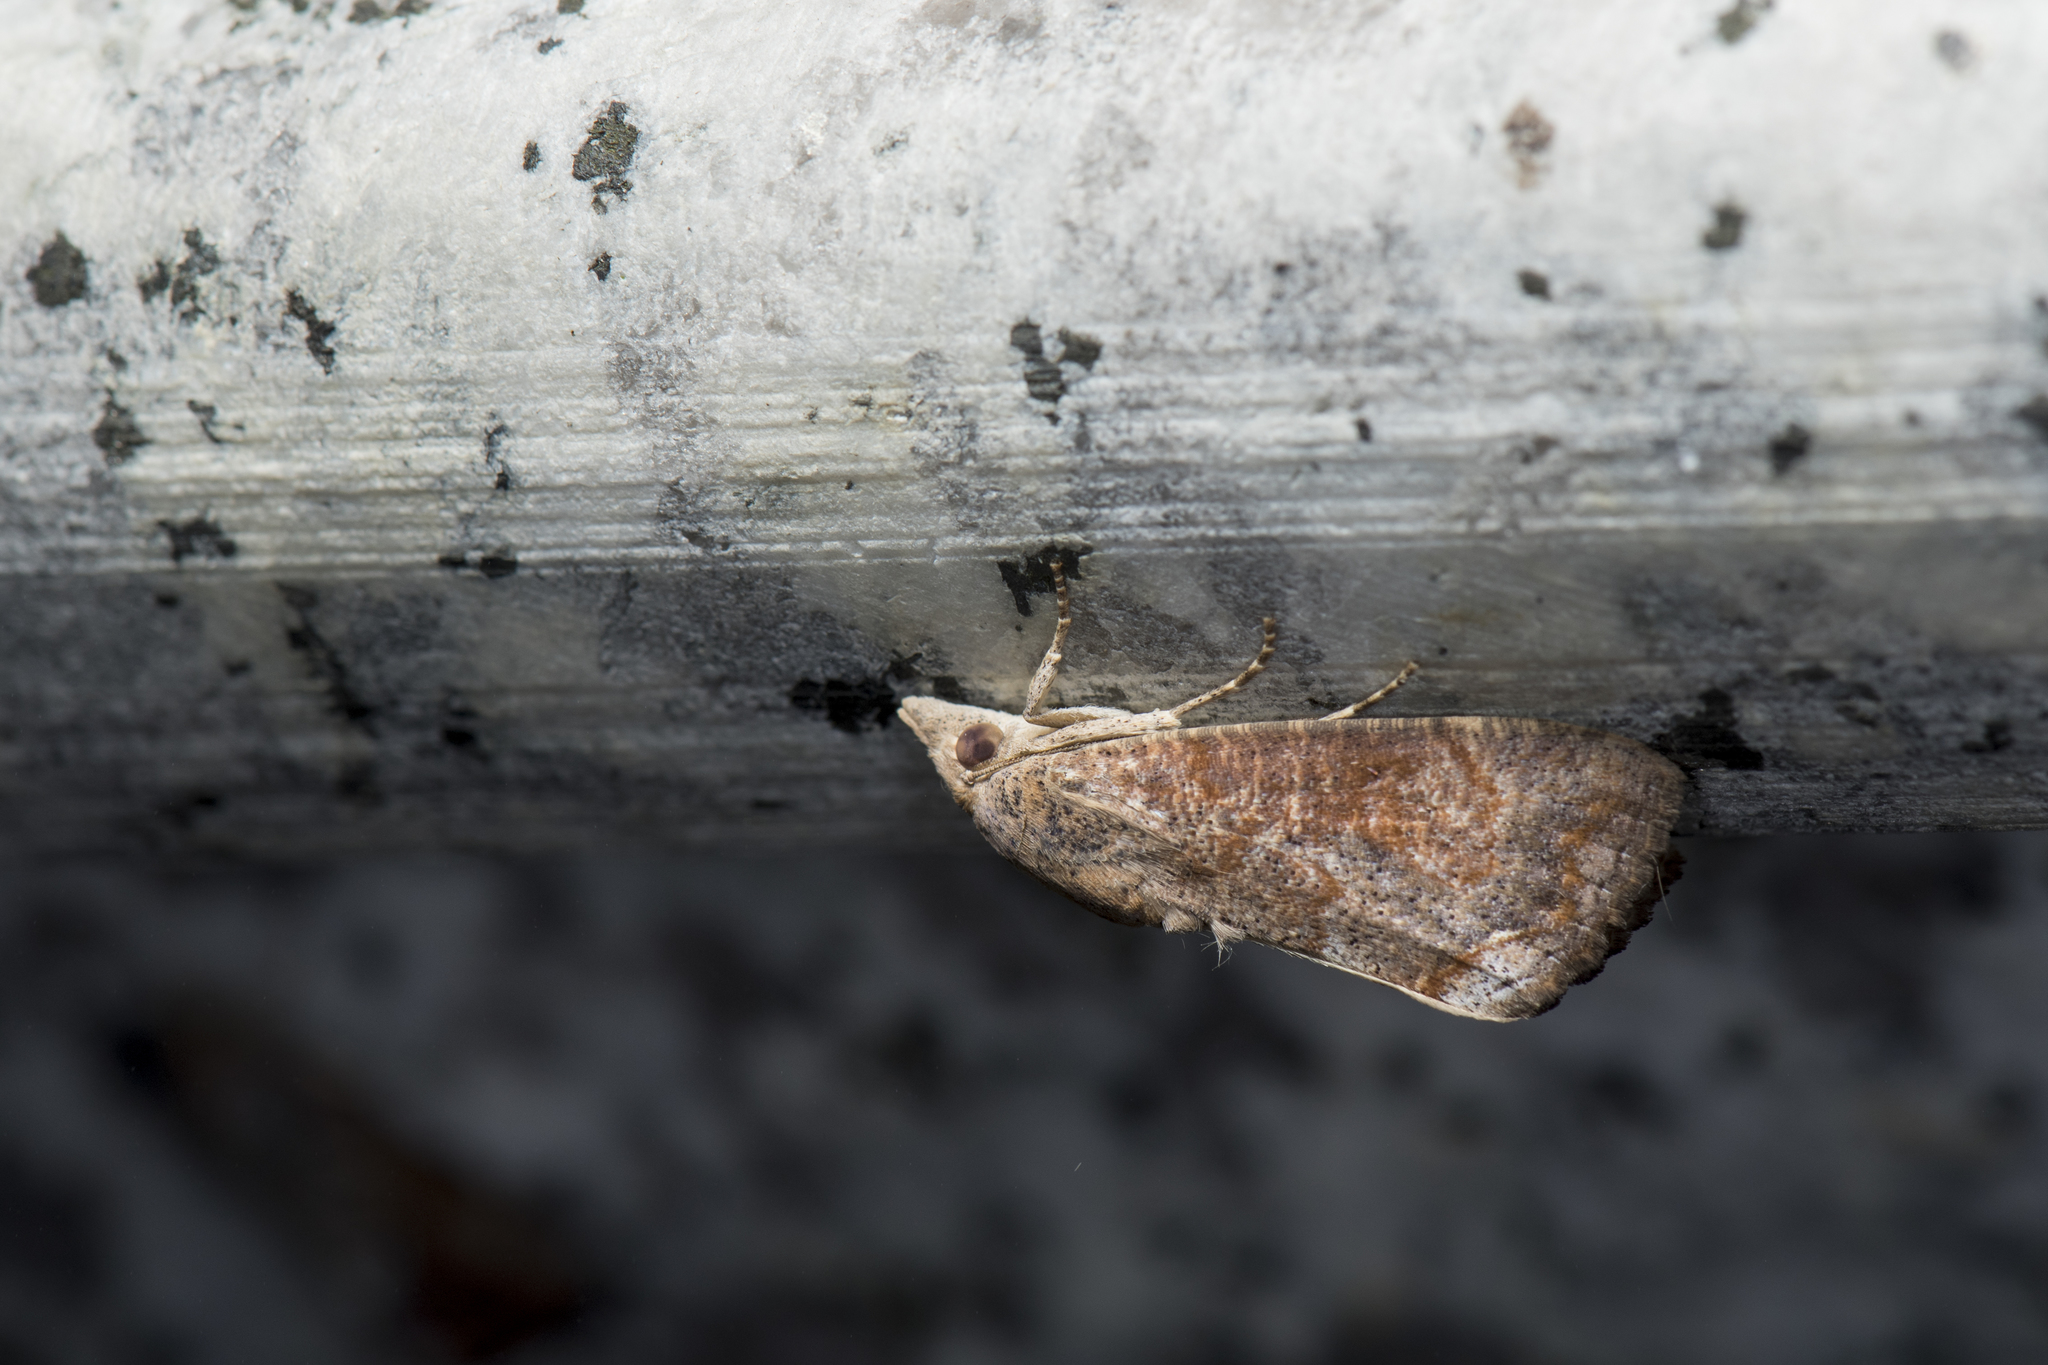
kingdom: Animalia
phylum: Arthropoda
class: Insecta
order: Lepidoptera
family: Erebidae
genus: Hypocala
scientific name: Hypocala subsatura
